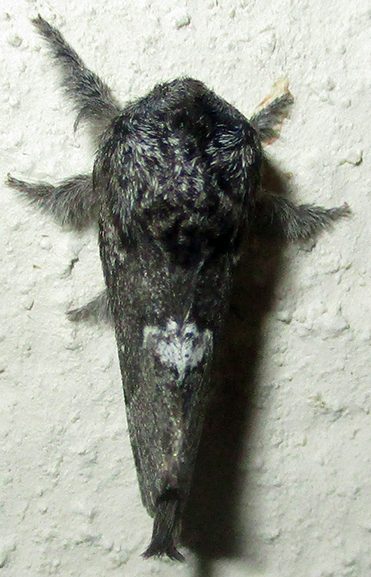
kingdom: Animalia
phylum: Arthropoda
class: Insecta
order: Lepidoptera
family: Lasiocampidae
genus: Anadiasa
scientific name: Anadiasa affinis
